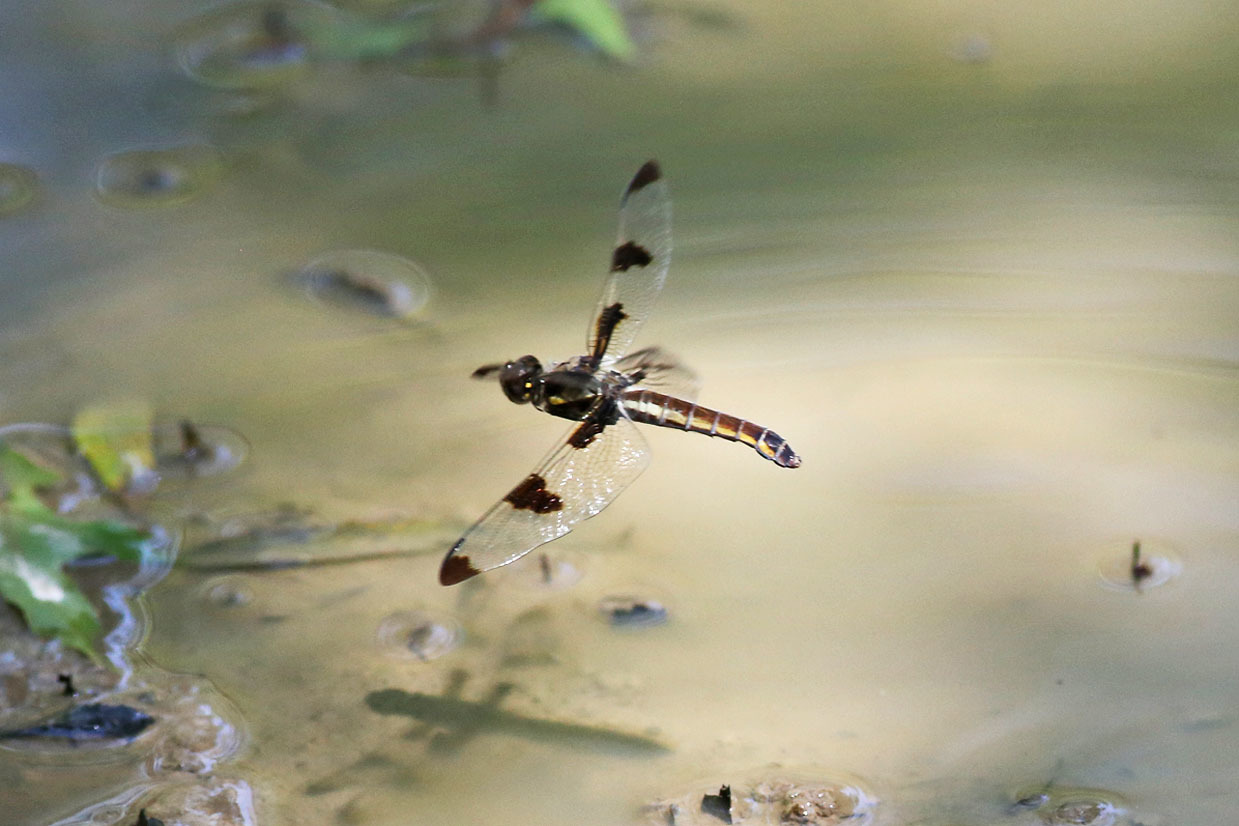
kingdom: Animalia
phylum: Arthropoda
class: Insecta
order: Odonata
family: Libellulidae
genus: Libellula
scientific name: Libellula pulchella
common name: Twelve-spotted skimmer
